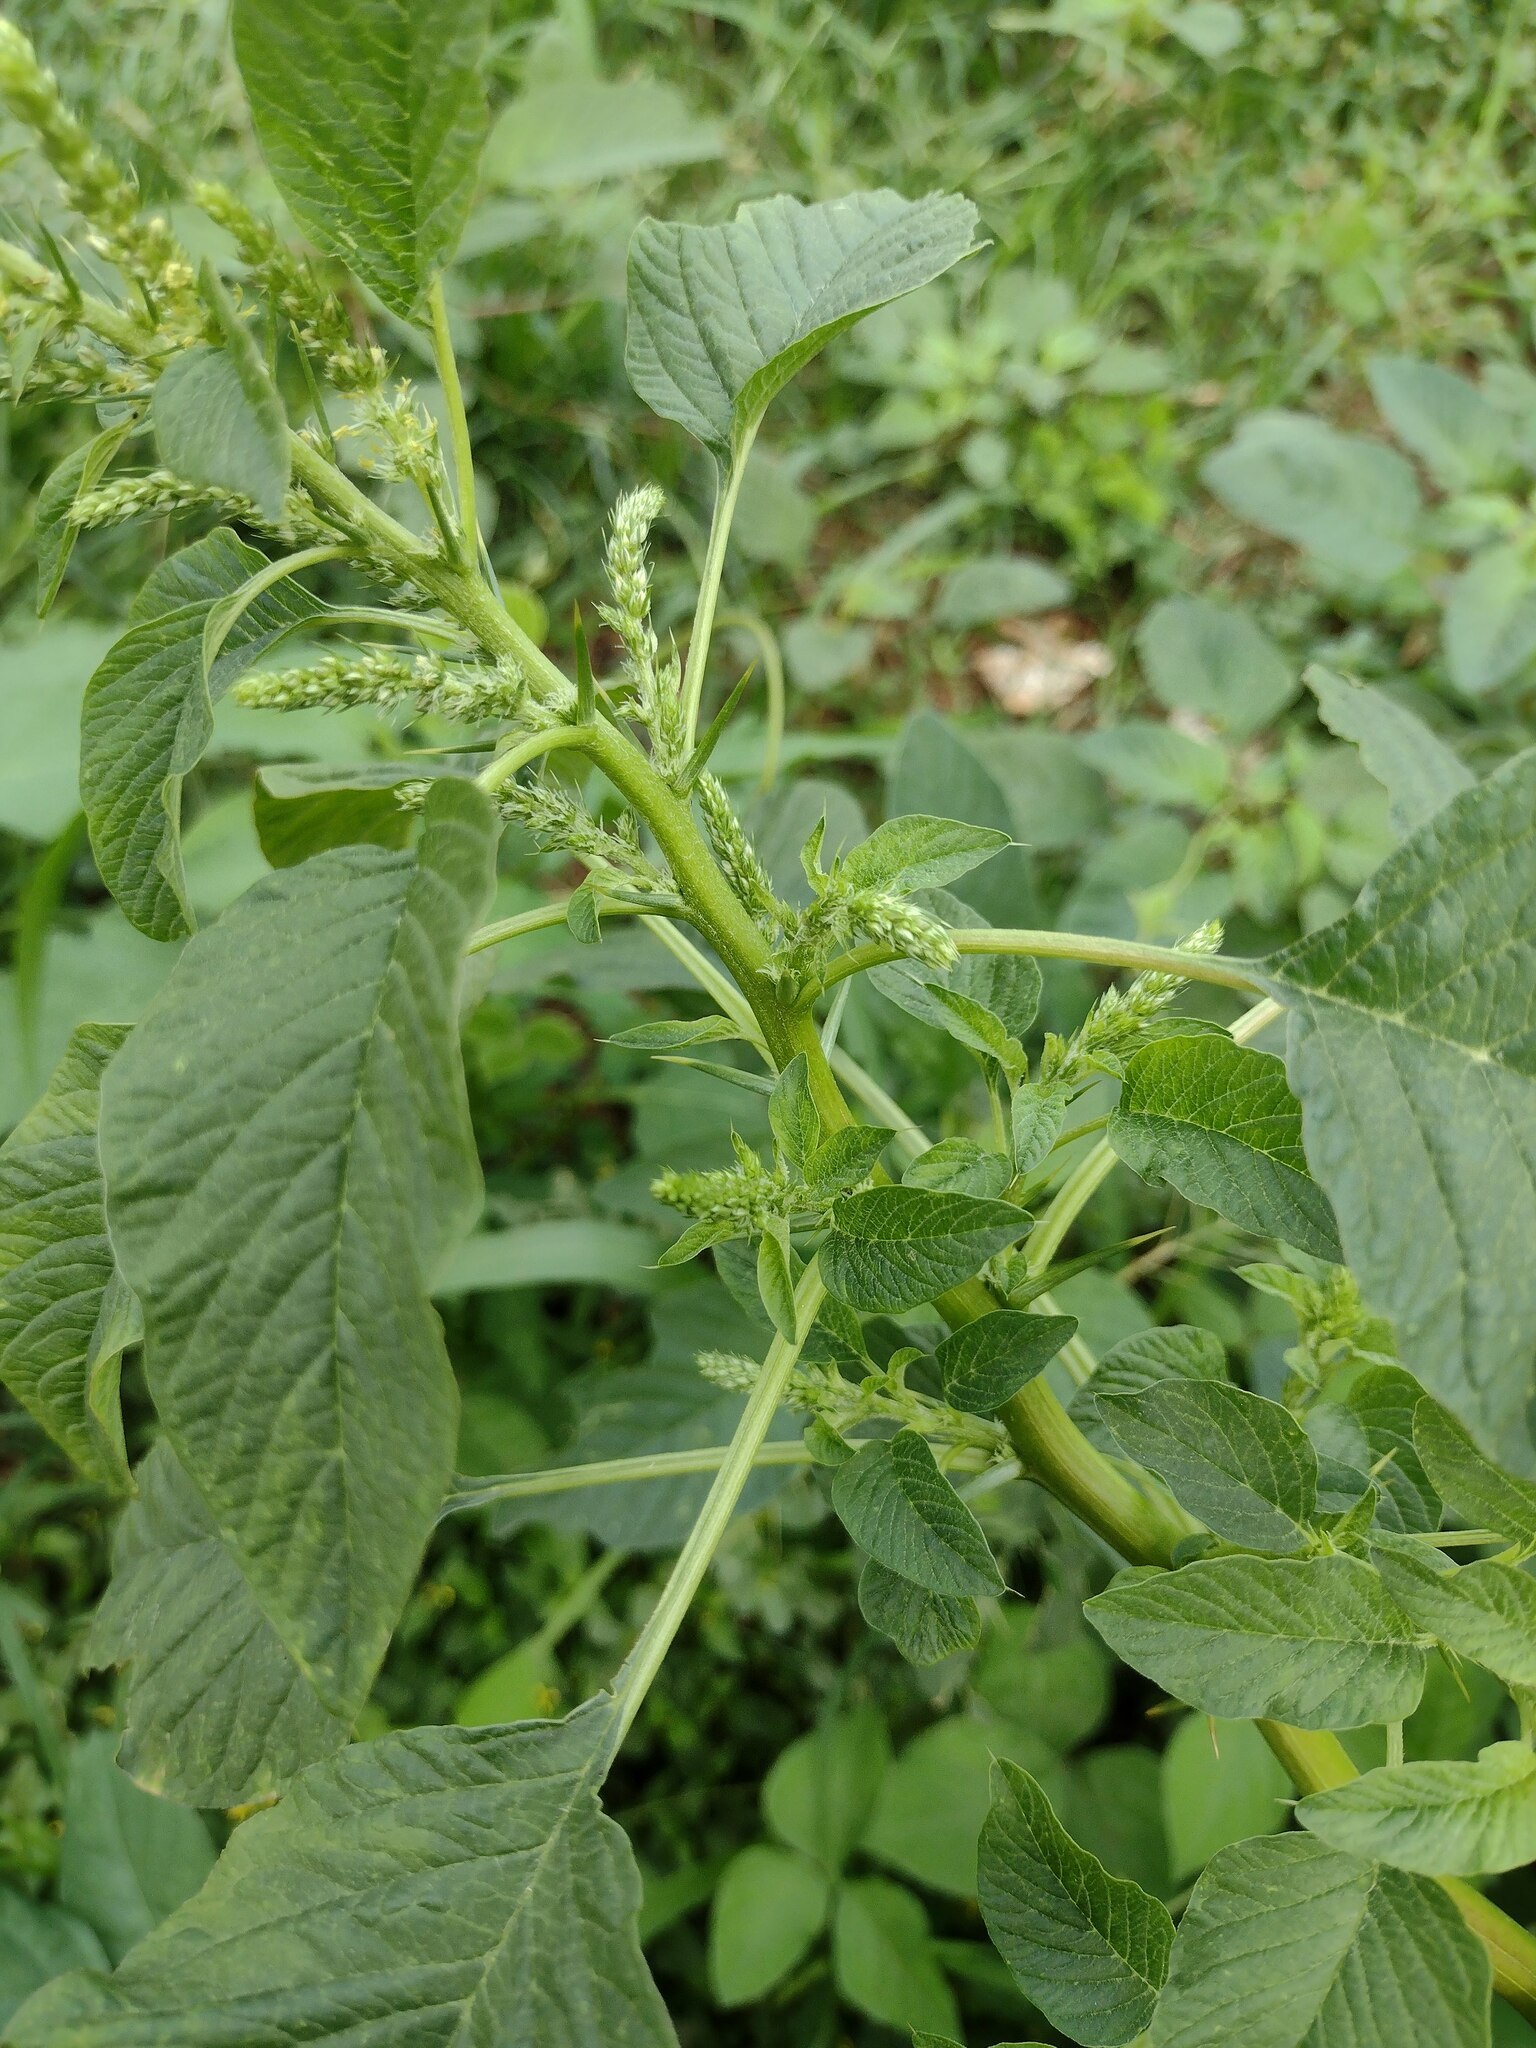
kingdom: Plantae
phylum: Tracheophyta
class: Magnoliopsida
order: Caryophyllales
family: Amaranthaceae
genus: Amaranthus
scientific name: Amaranthus spinosus
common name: Spiny amaranth
